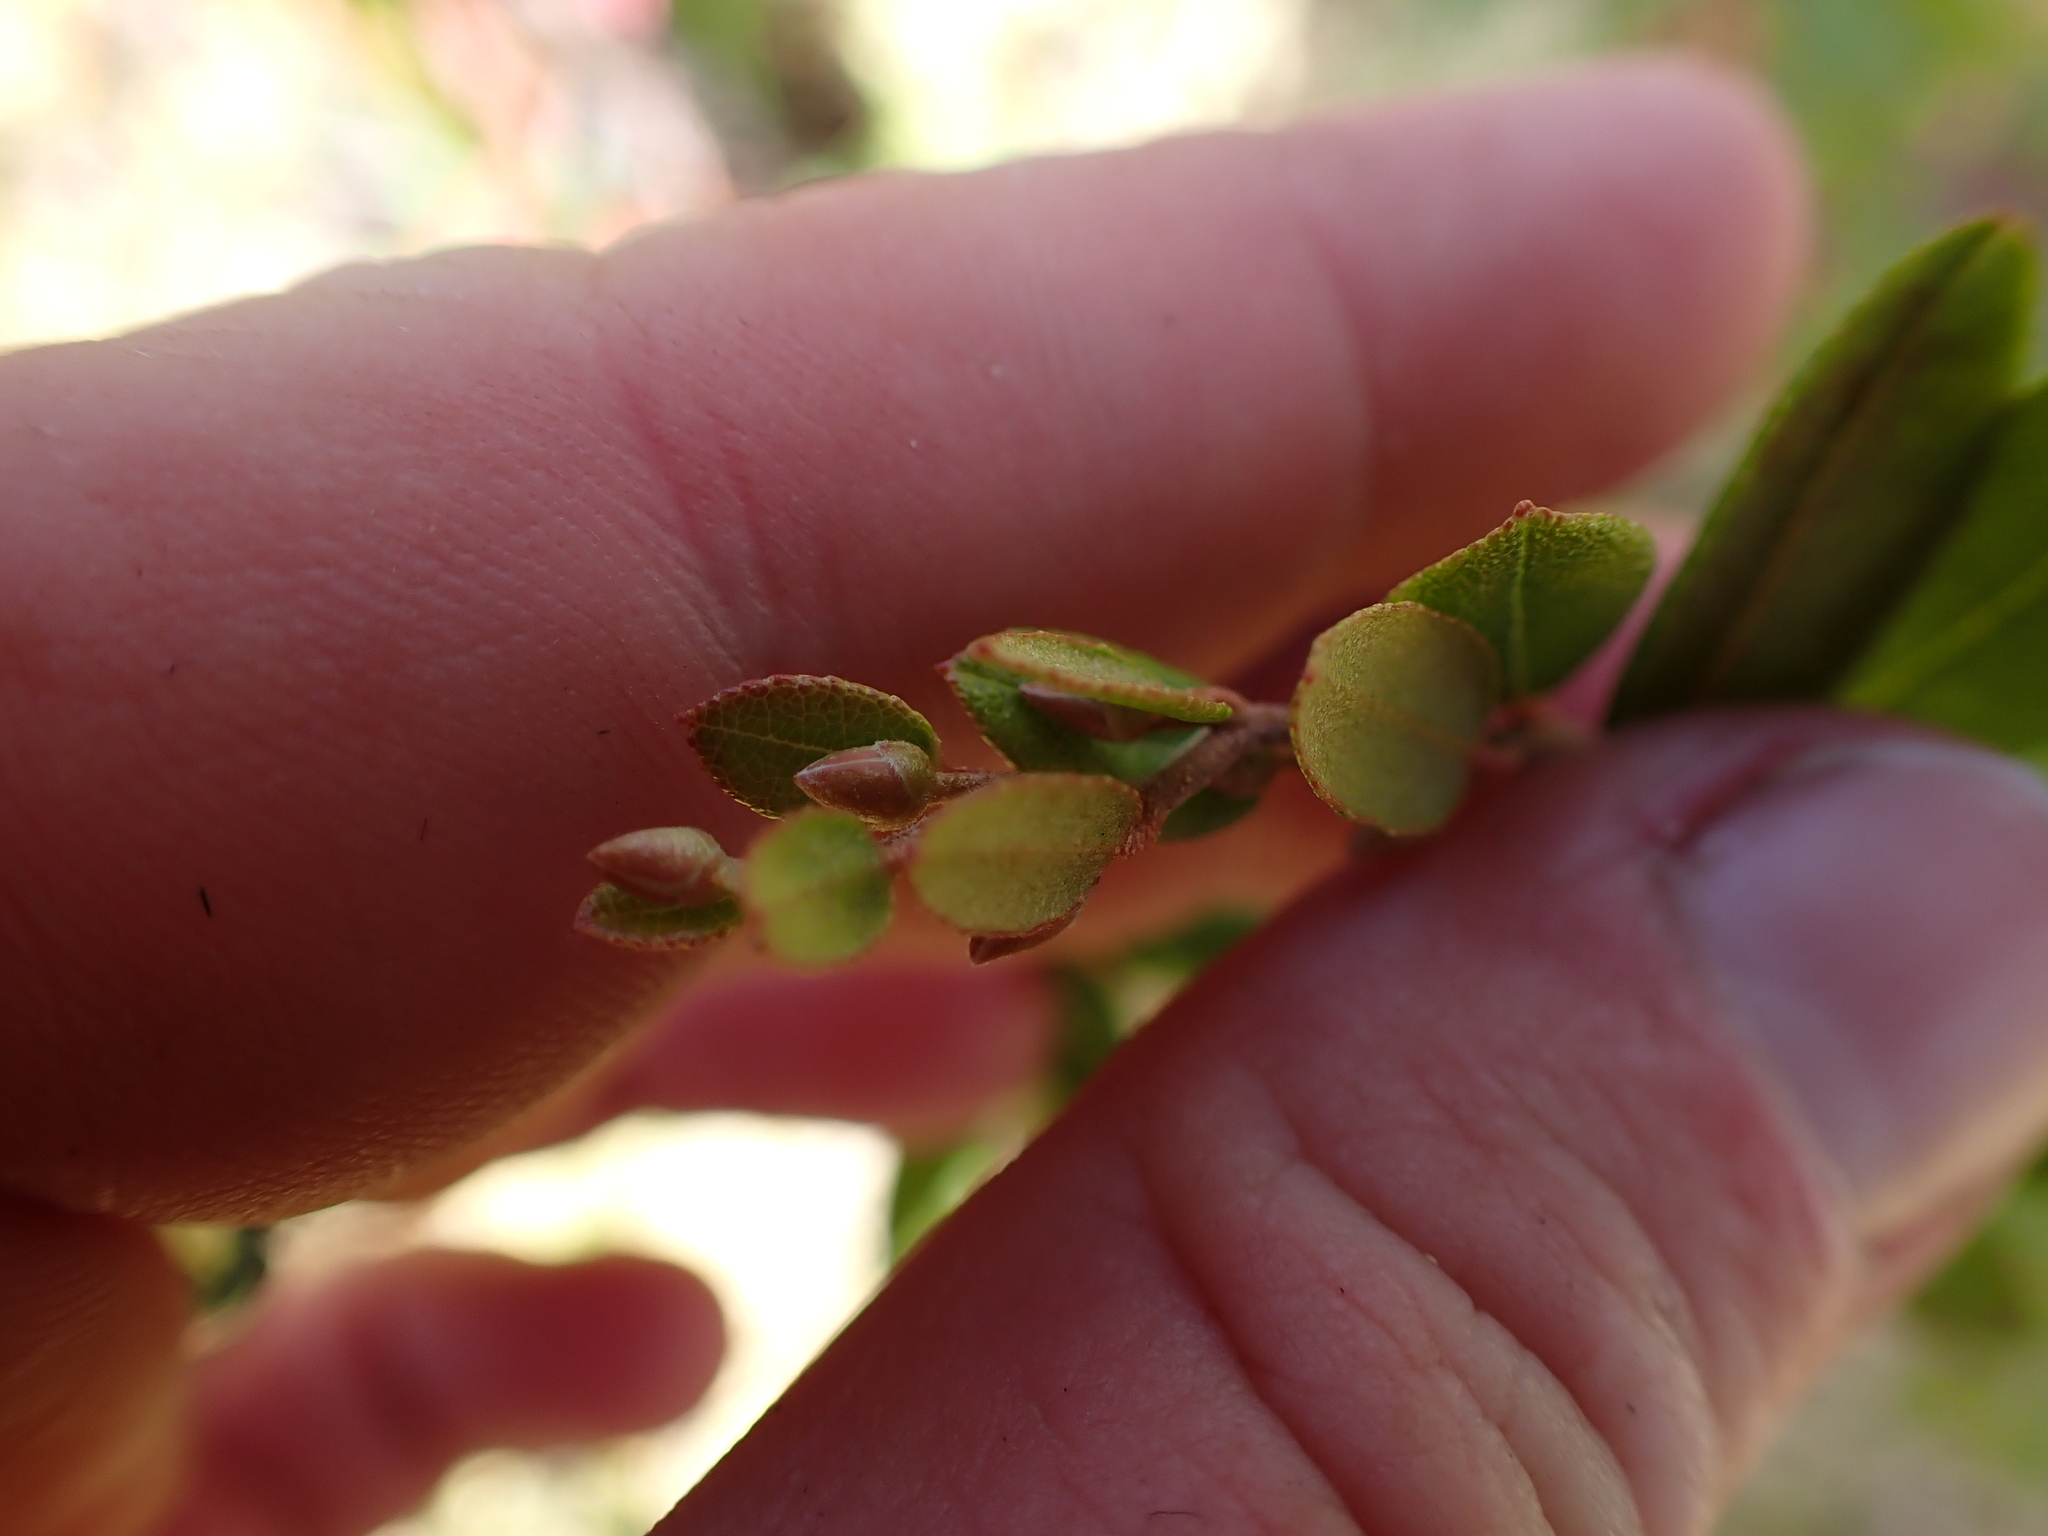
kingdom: Plantae
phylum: Tracheophyta
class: Magnoliopsida
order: Ericales
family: Ericaceae
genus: Chamaedaphne
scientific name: Chamaedaphne calyculata
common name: Leatherleaf
